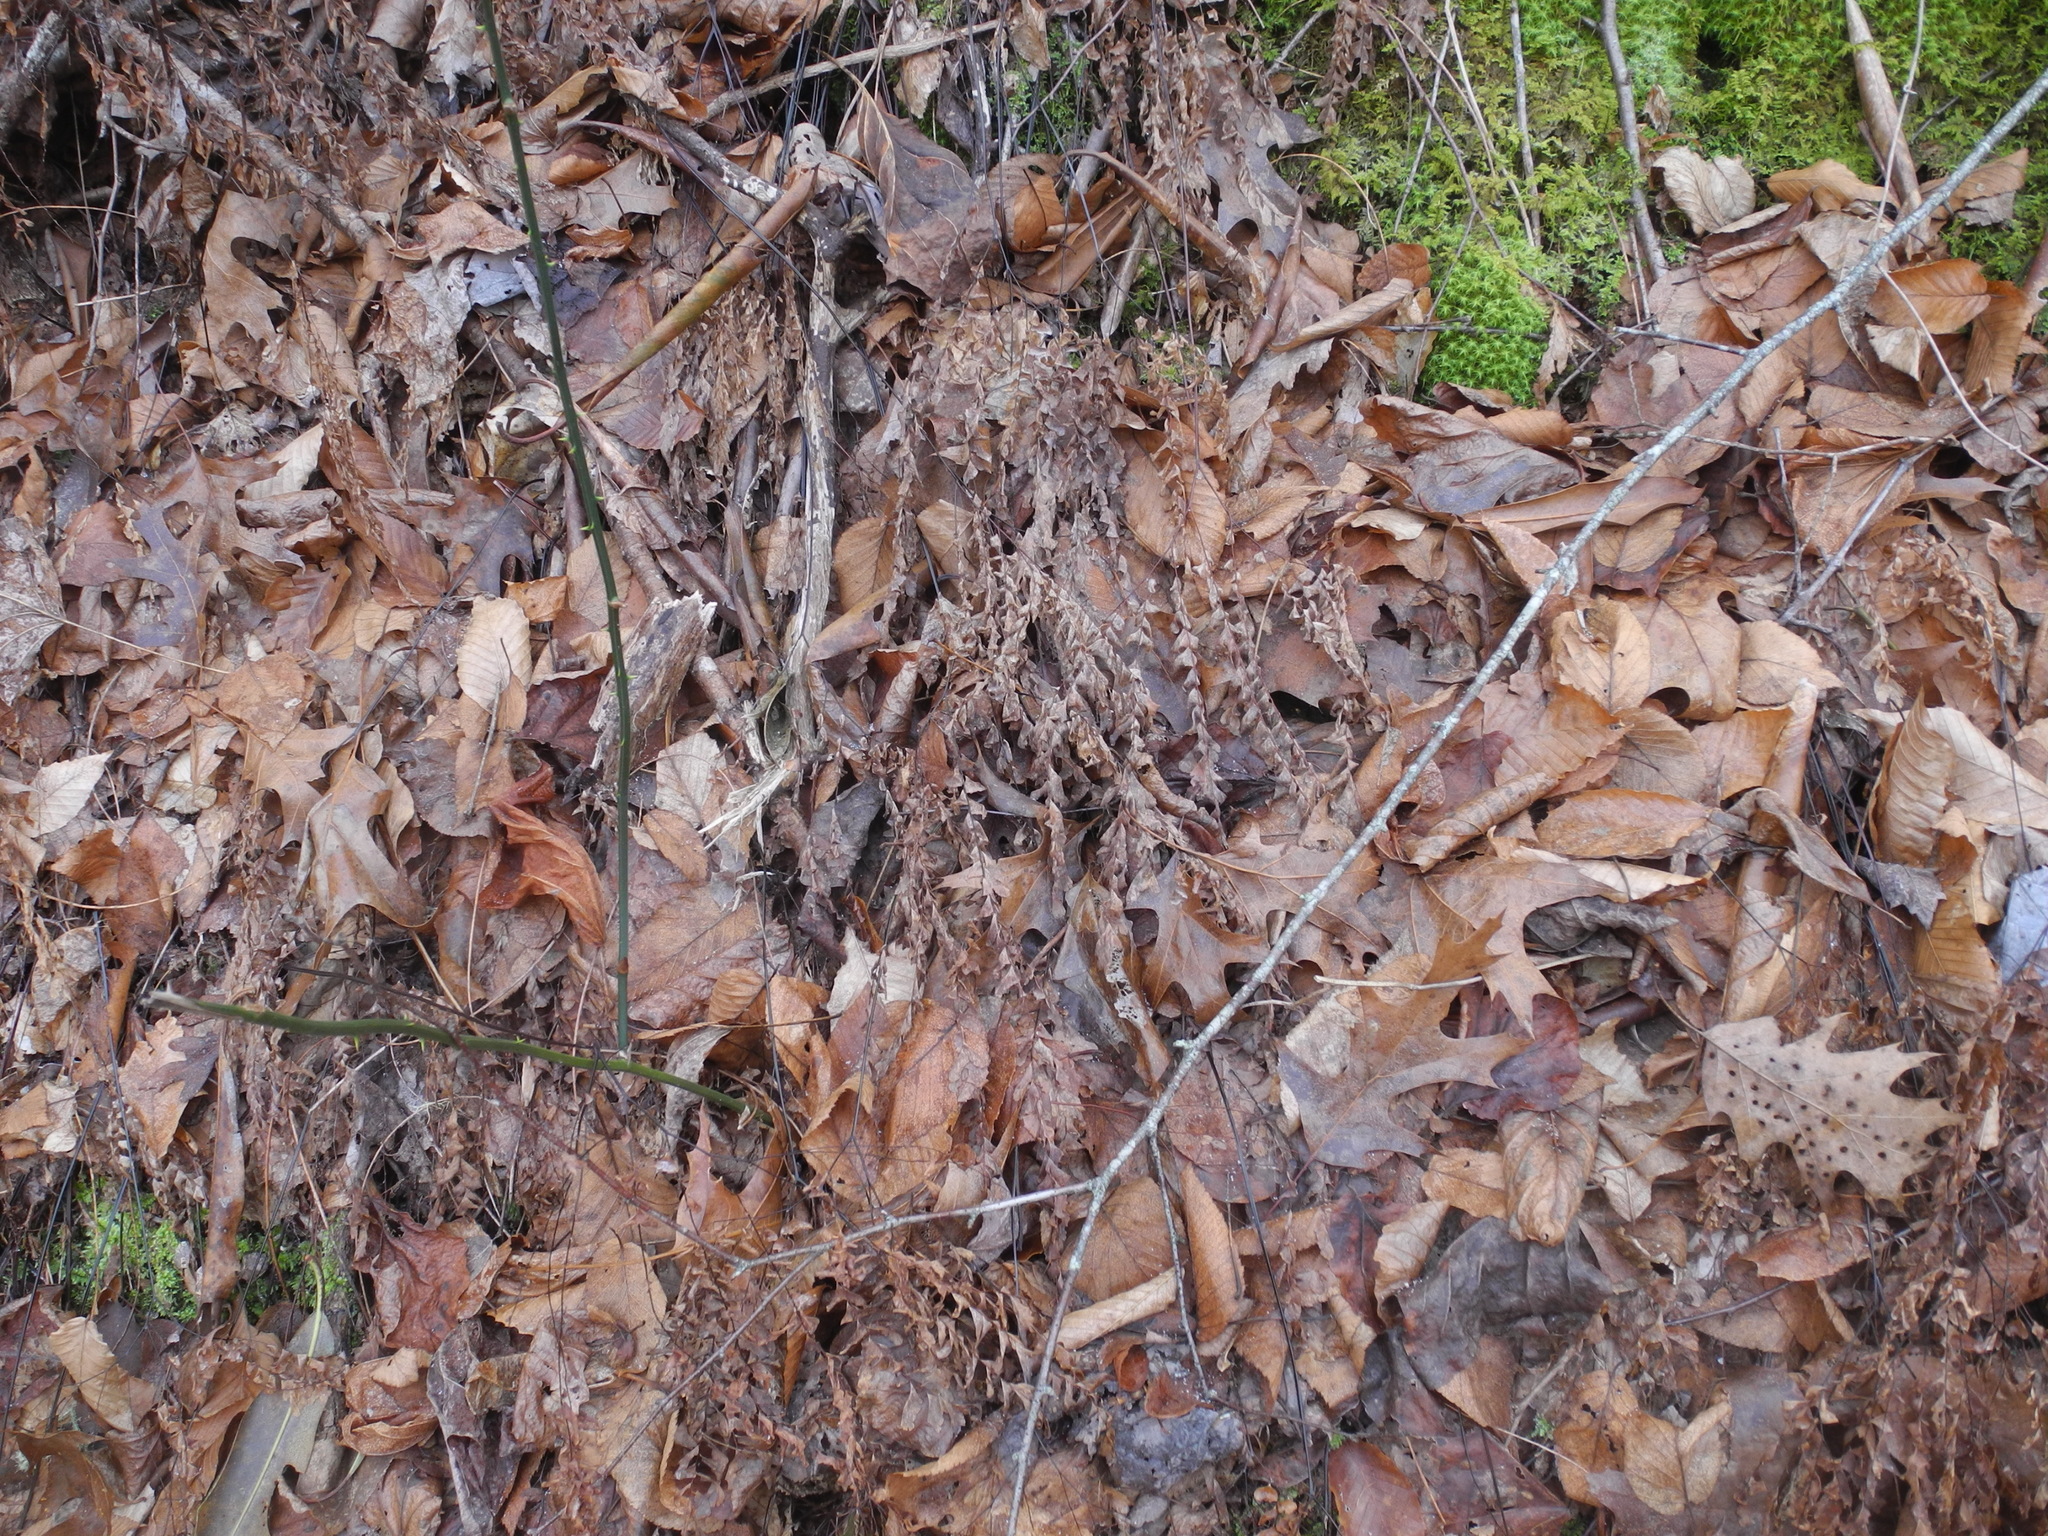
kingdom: Plantae
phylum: Tracheophyta
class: Polypodiopsida
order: Polypodiales
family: Pteridaceae
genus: Adiantum
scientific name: Adiantum pedatum
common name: Five-finger fern
